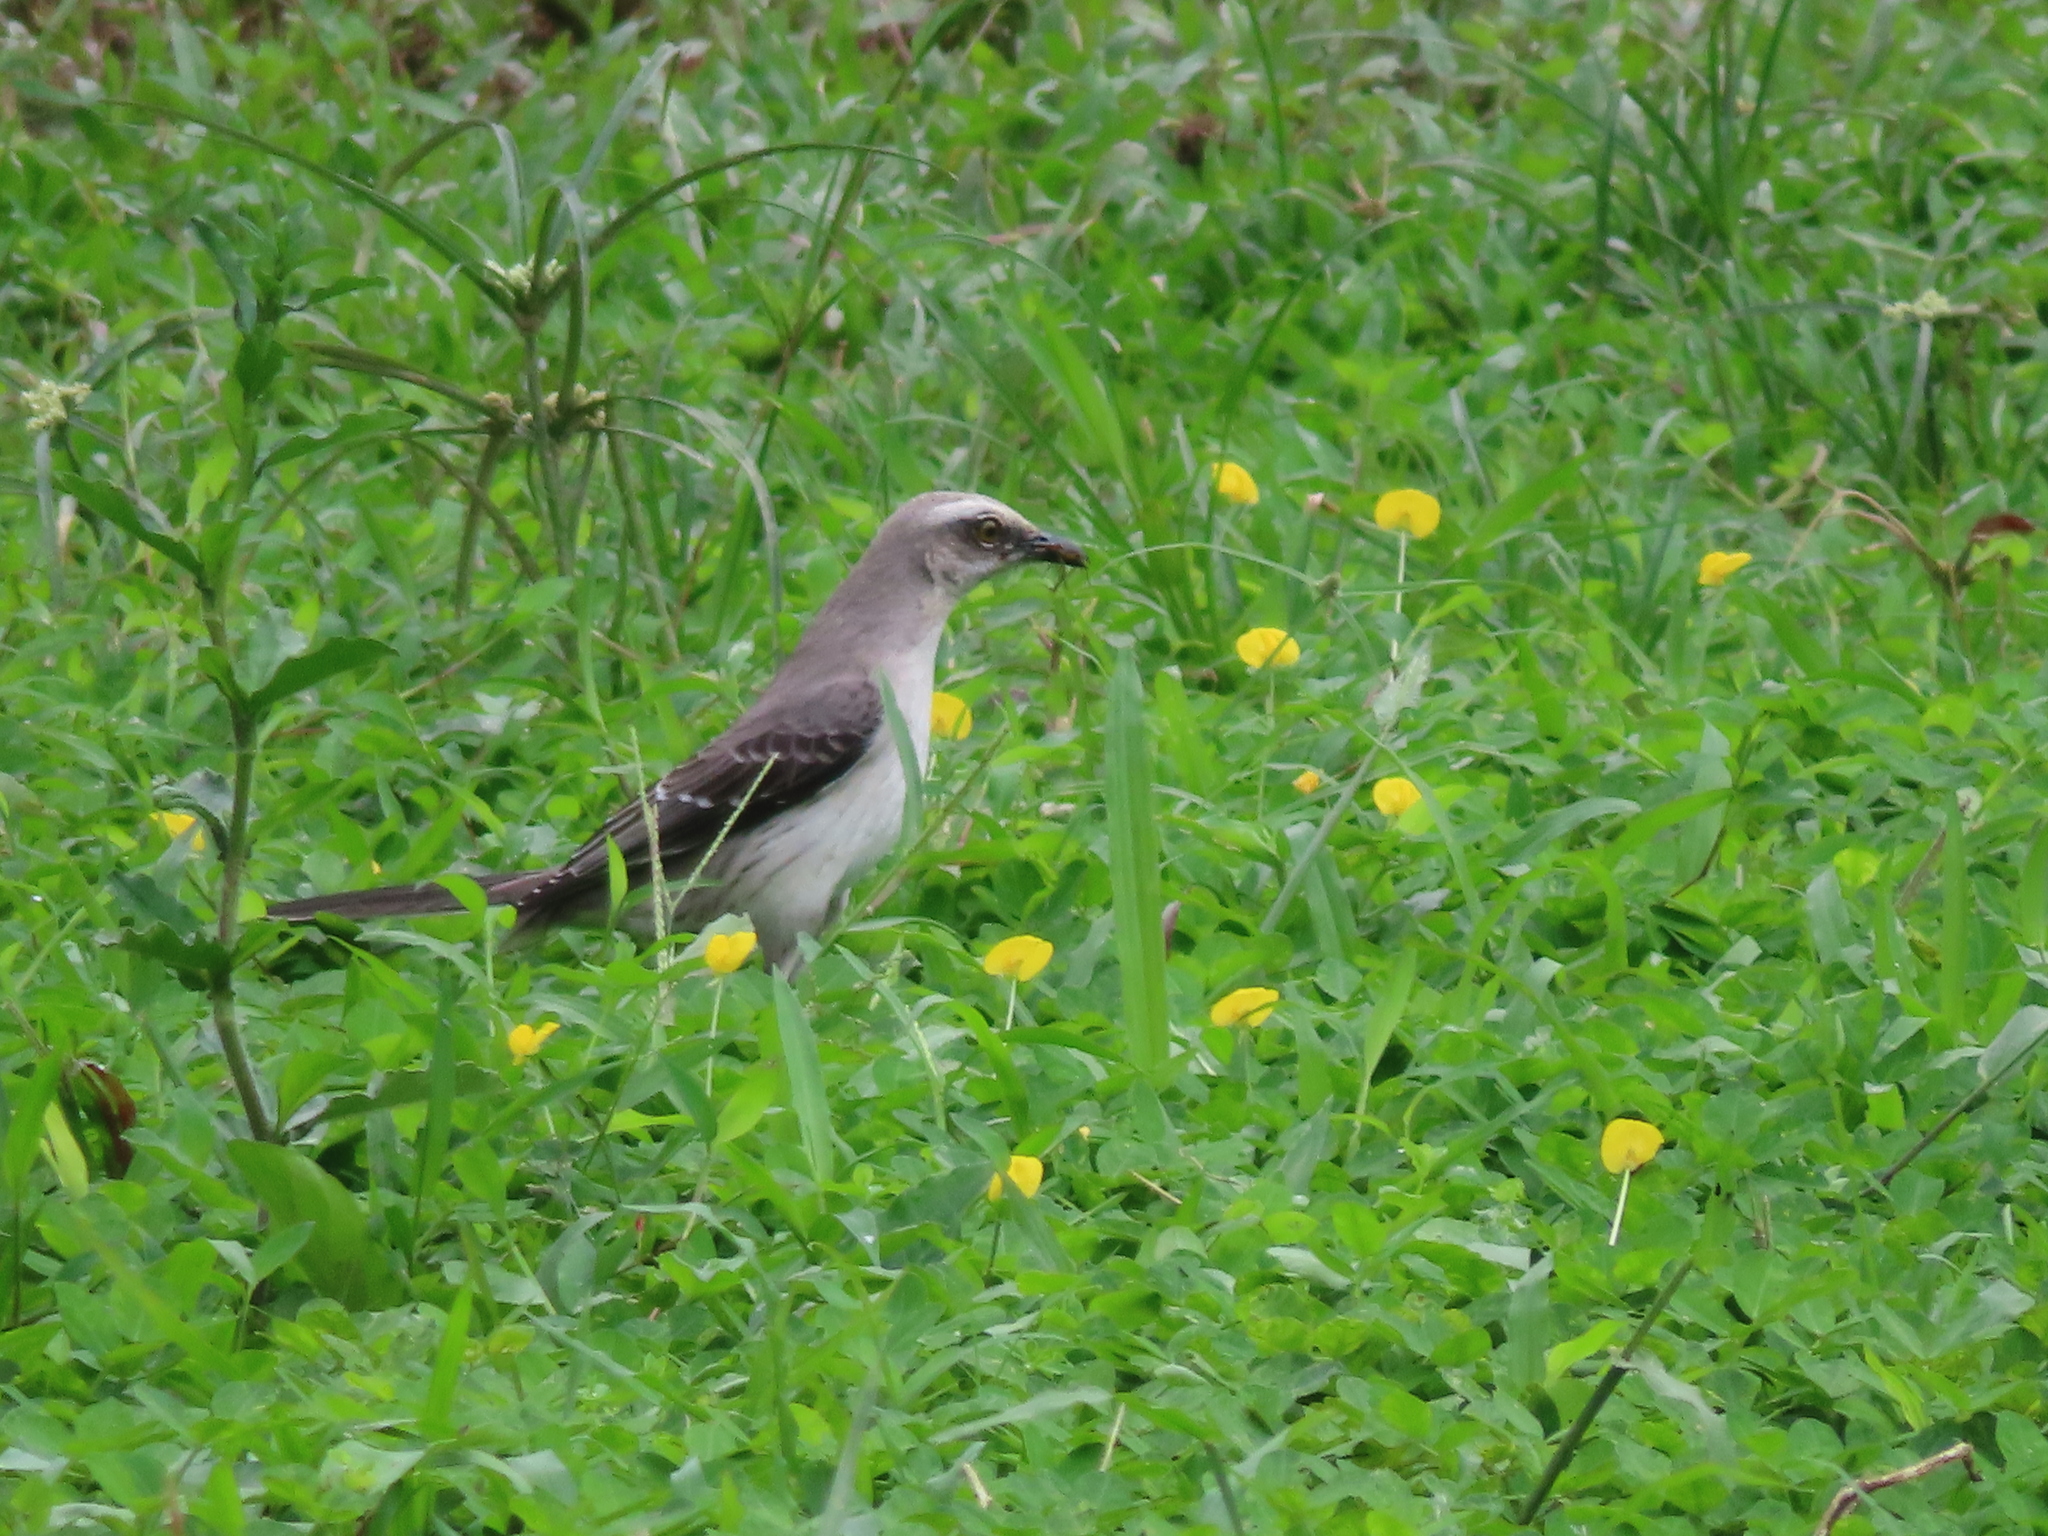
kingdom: Animalia
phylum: Chordata
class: Aves
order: Passeriformes
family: Mimidae
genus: Mimus
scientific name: Mimus gilvus
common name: Tropical mockingbird
